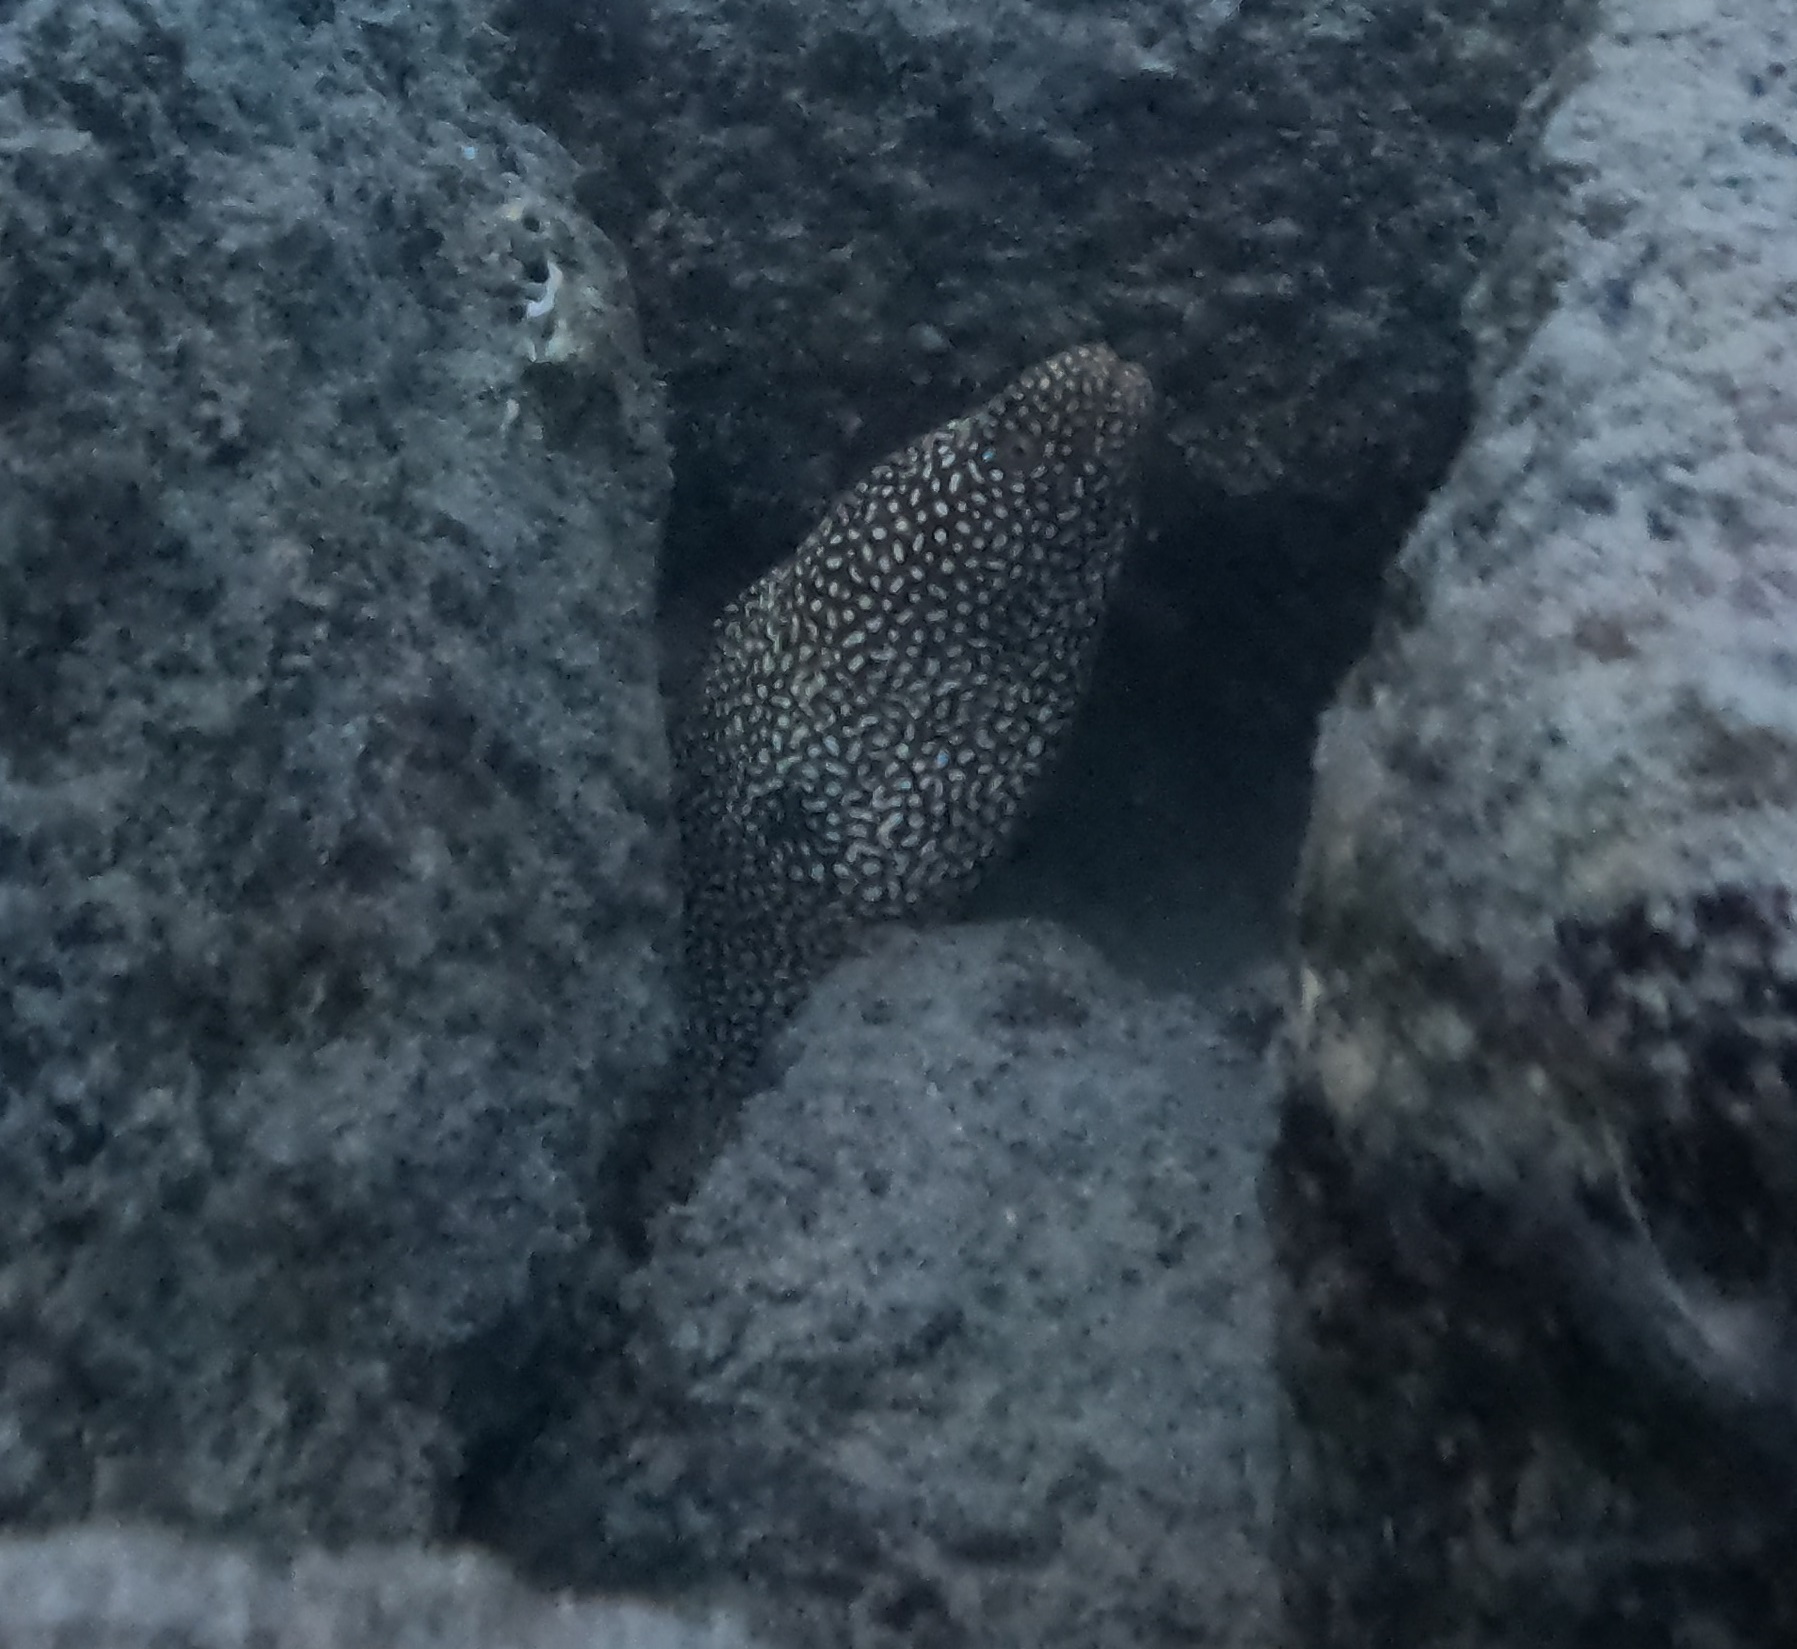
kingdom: Animalia
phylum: Chordata
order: Anguilliformes
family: Muraenidae
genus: Gymnothorax
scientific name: Gymnothorax meleagris
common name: Guineafowl moray
